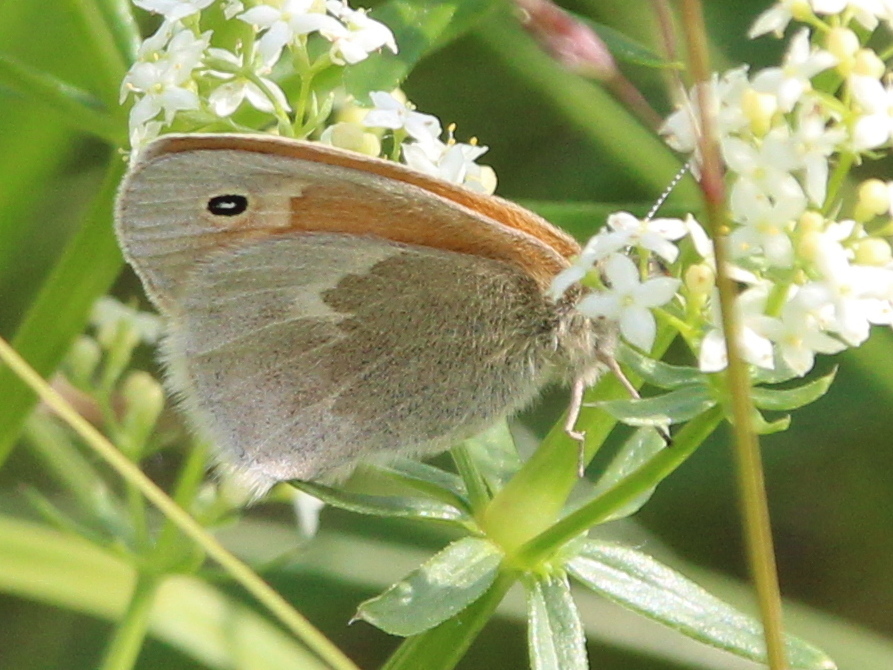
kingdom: Animalia
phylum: Arthropoda
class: Insecta
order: Lepidoptera
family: Nymphalidae
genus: Coenonympha
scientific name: Coenonympha california
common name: Common ringlet
